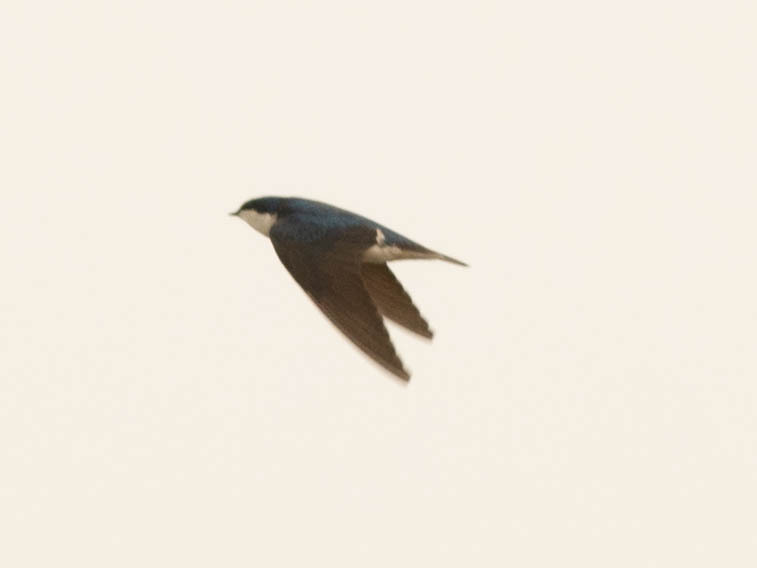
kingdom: Animalia
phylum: Chordata
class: Aves
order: Passeriformes
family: Hirundinidae
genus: Tachycineta
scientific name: Tachycineta bicolor
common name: Tree swallow
